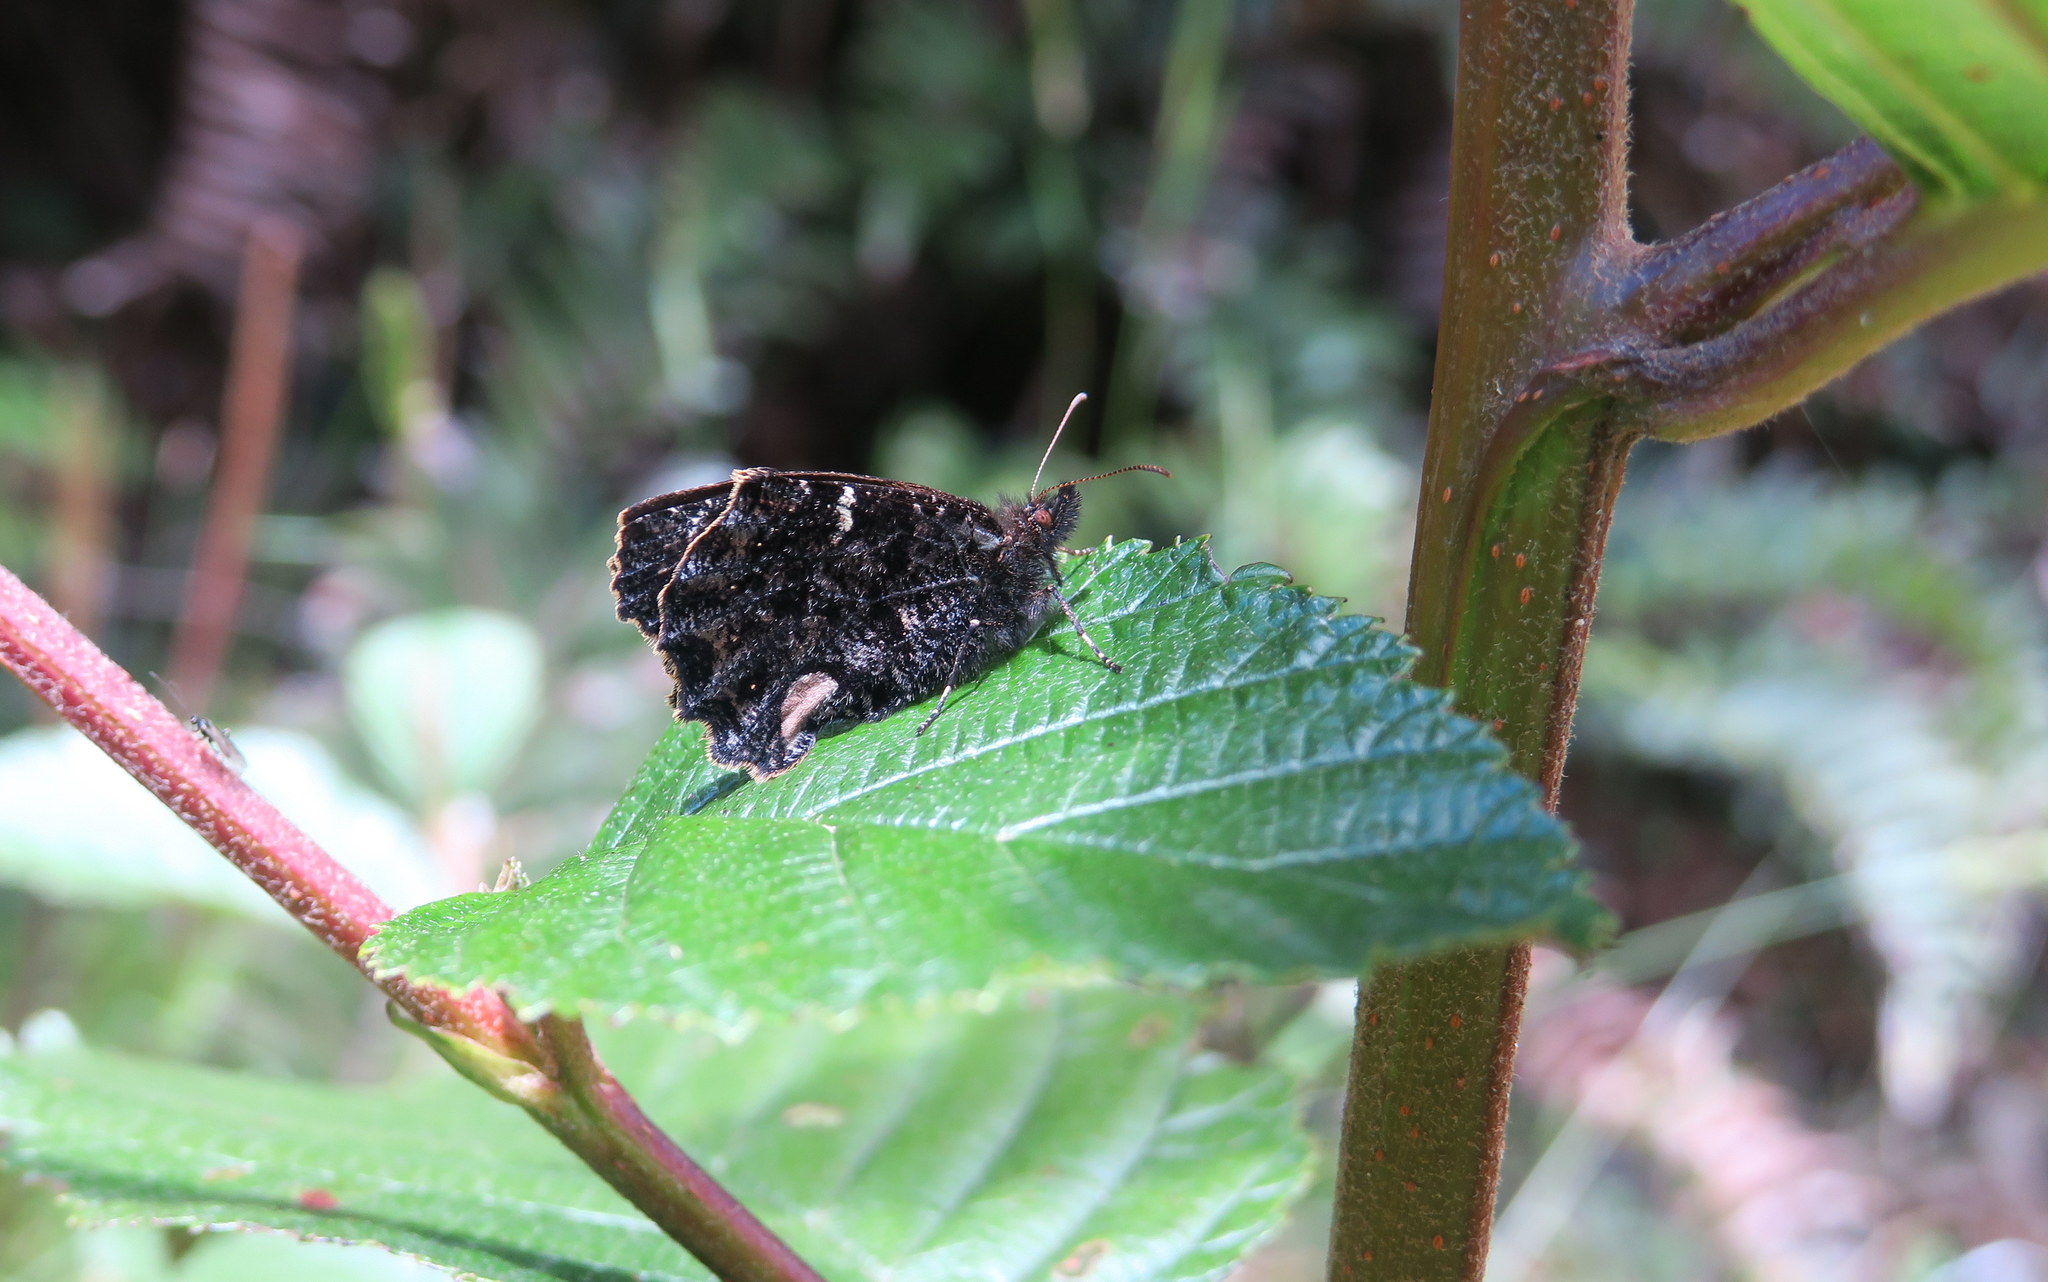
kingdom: Animalia
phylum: Arthropoda
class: Insecta
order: Lepidoptera
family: Nymphalidae
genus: Steremnia
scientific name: Steremnia monachella
